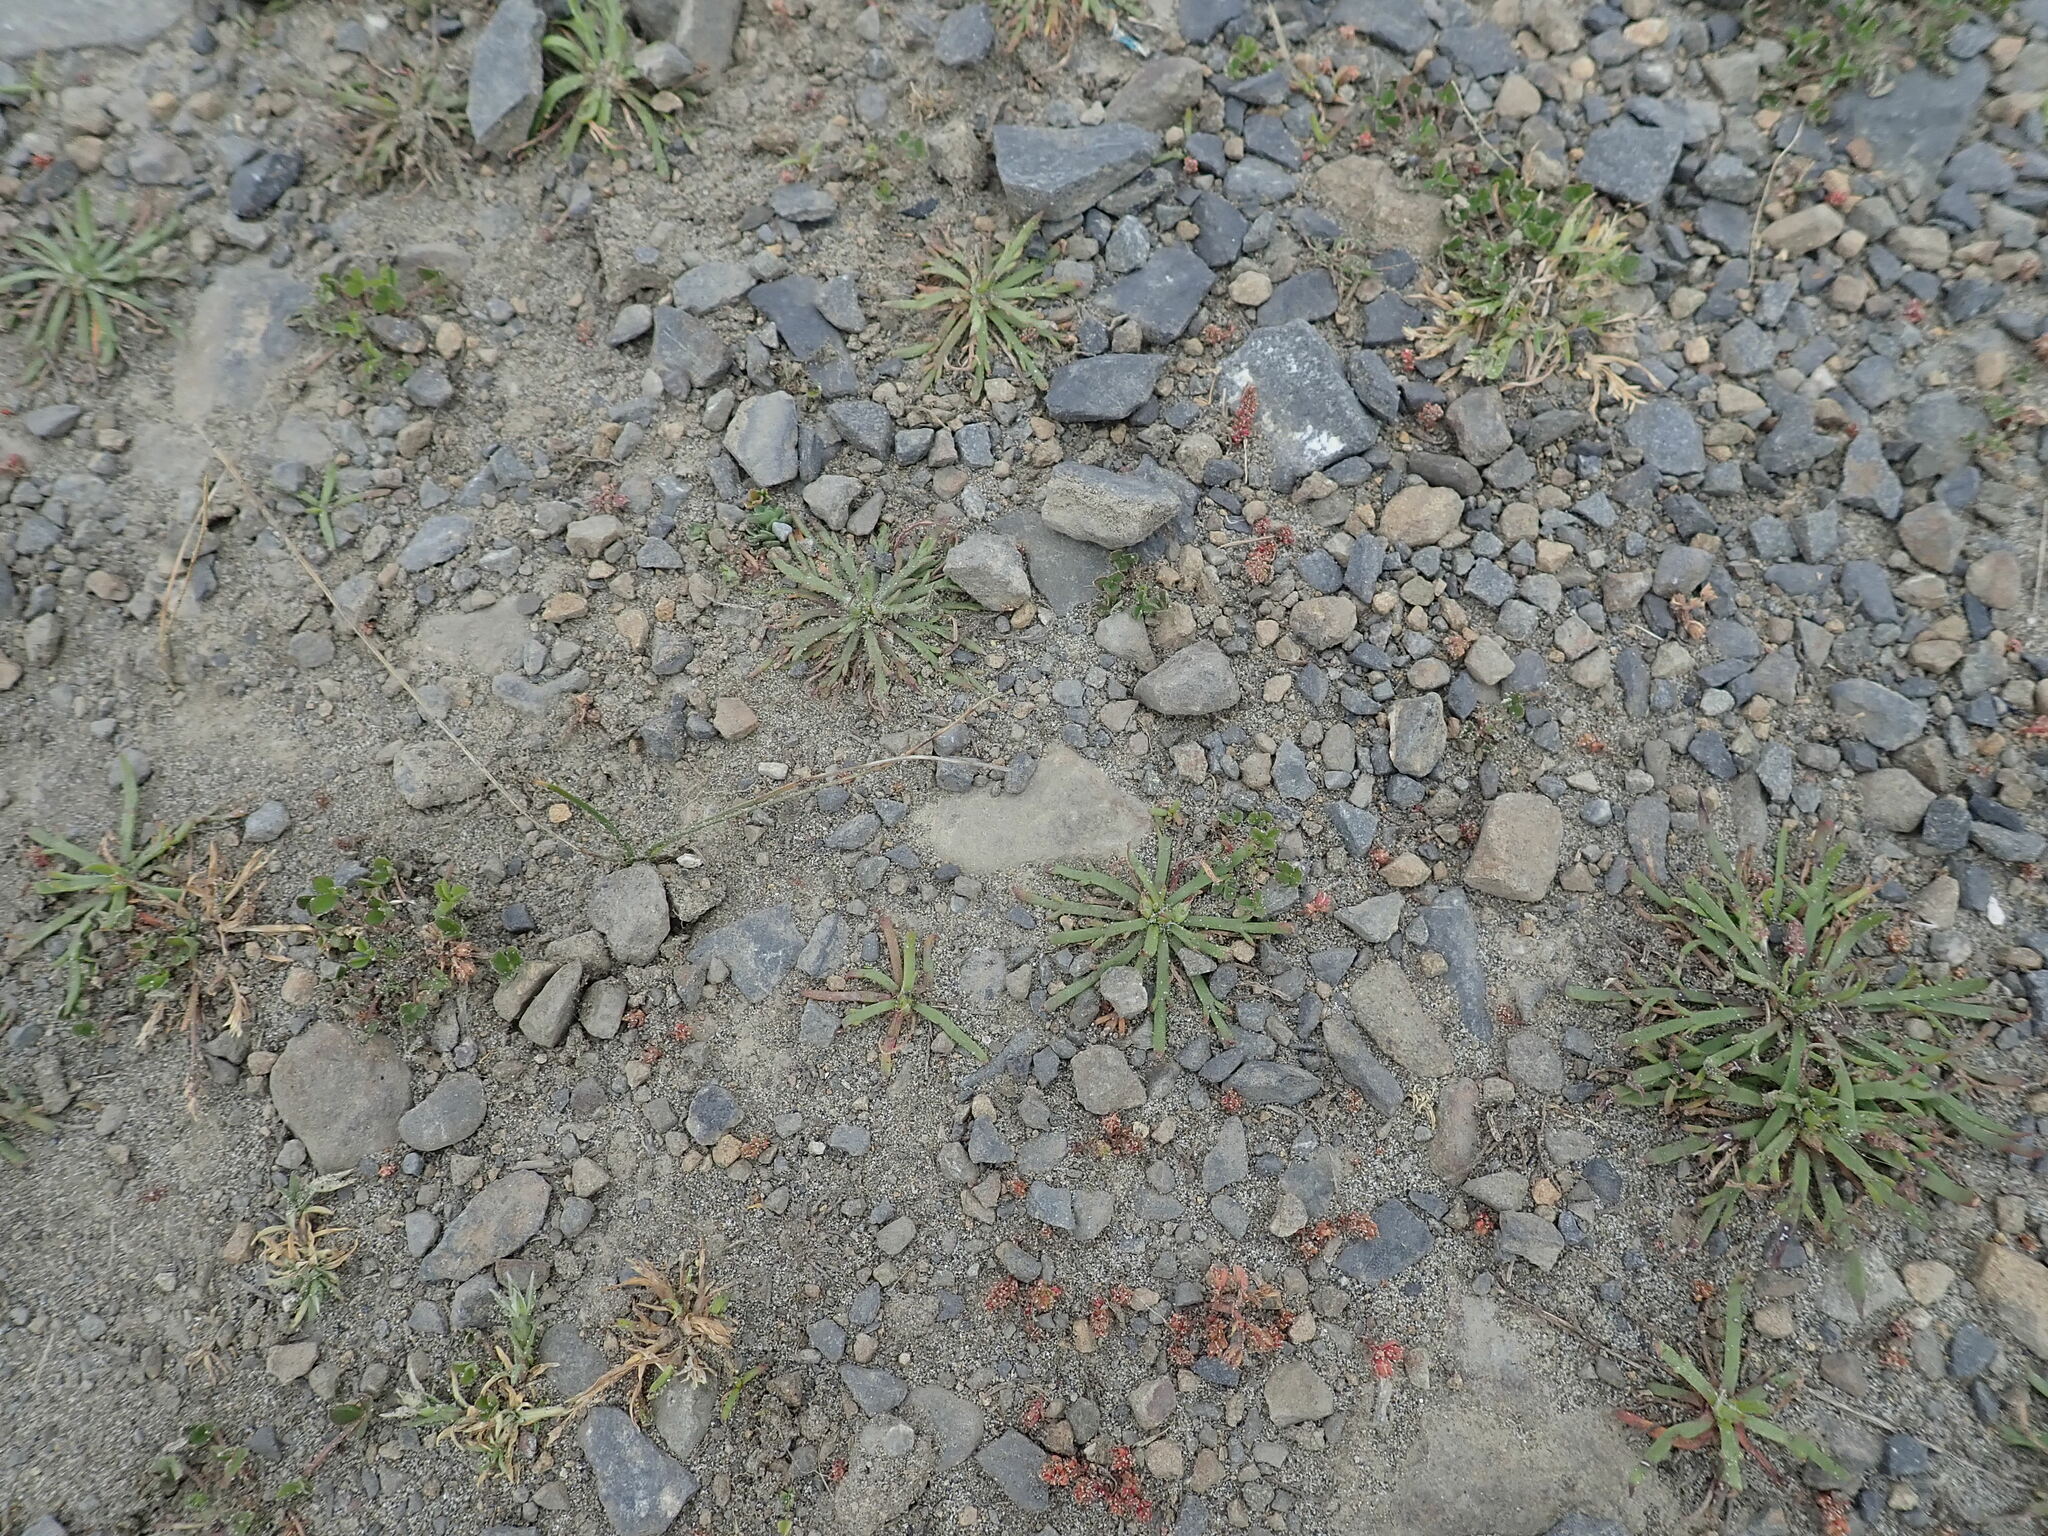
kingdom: Plantae
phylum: Tracheophyta
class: Magnoliopsida
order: Lamiales
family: Plantaginaceae
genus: Plantago
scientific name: Plantago coronopus
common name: Buck's-horn plantain
